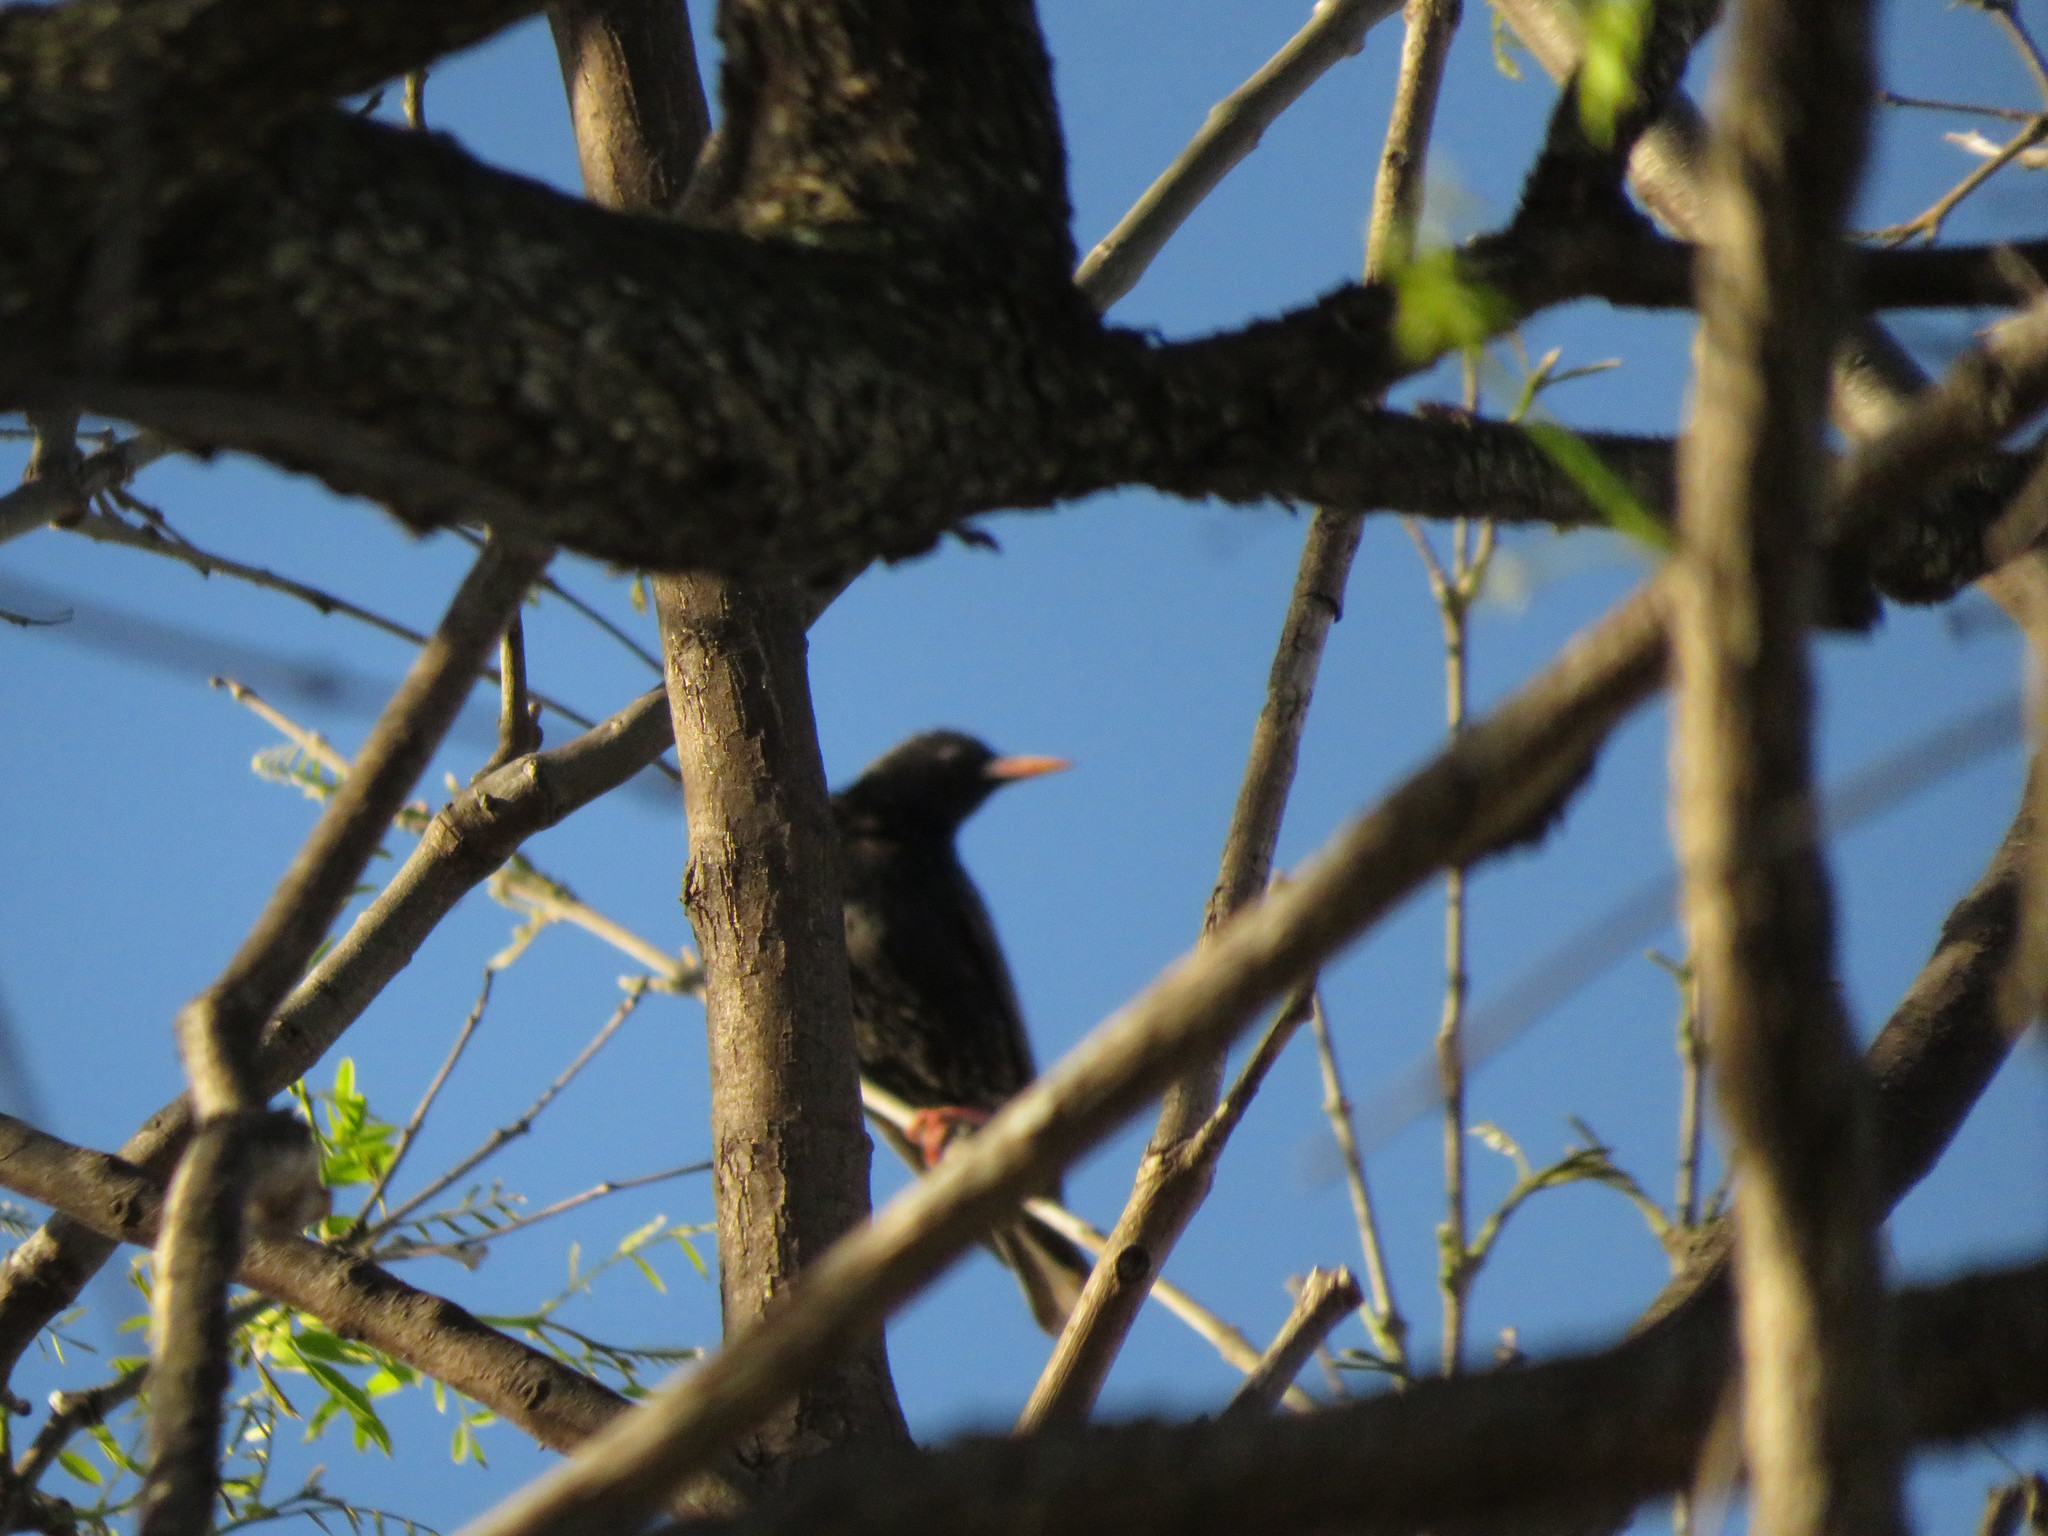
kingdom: Animalia
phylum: Chordata
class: Aves
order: Passeriformes
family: Sturnidae
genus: Sturnus
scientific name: Sturnus vulgaris
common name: Common starling
